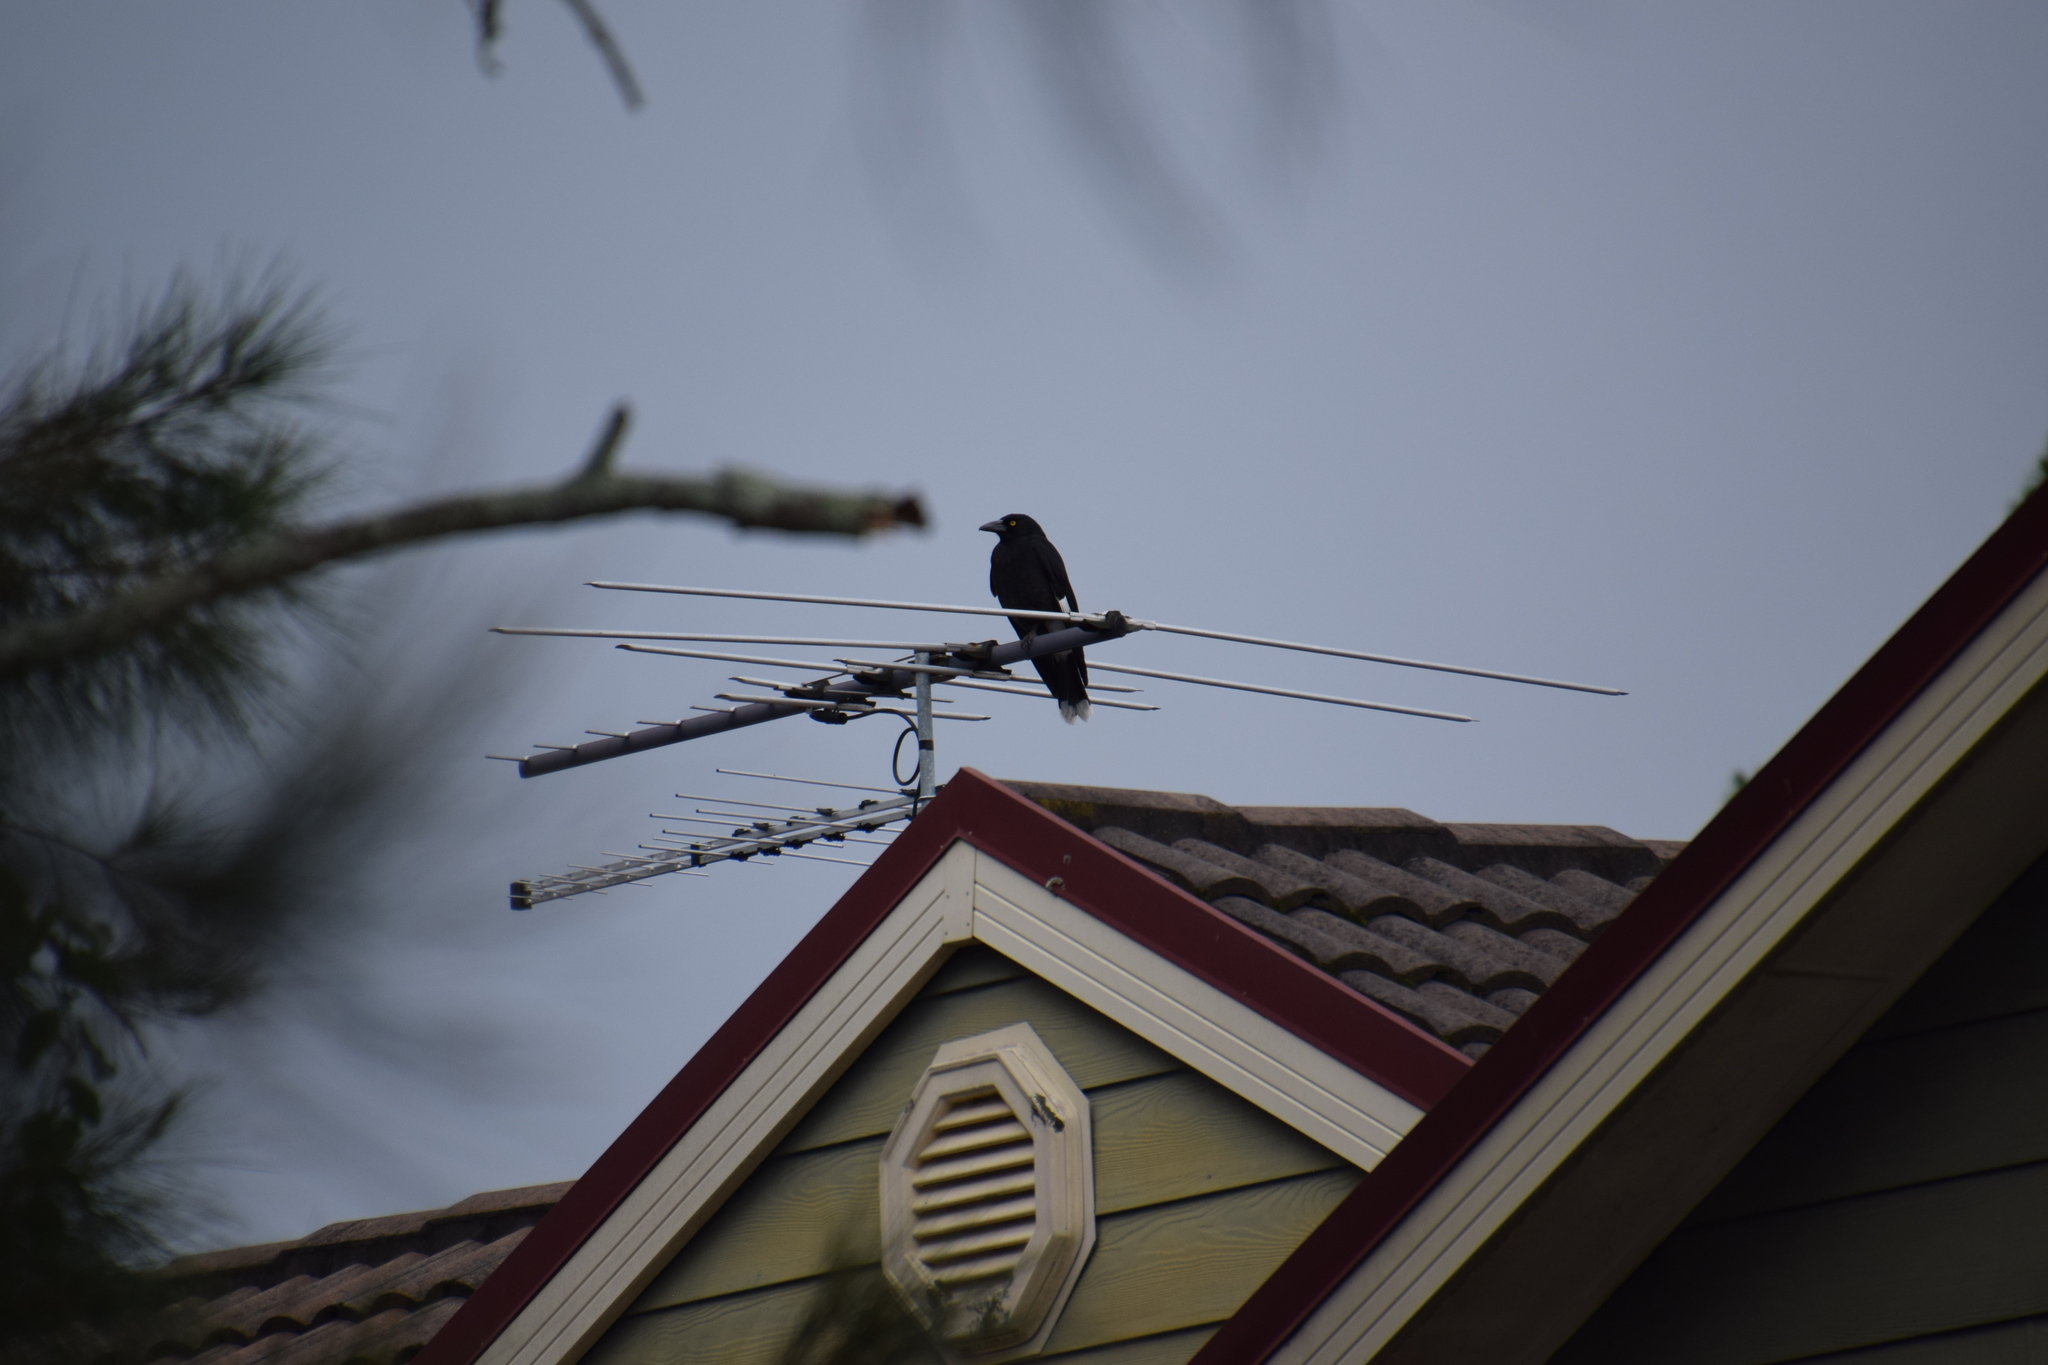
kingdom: Animalia
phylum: Chordata
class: Aves
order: Passeriformes
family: Cracticidae
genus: Strepera
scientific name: Strepera graculina
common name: Pied currawong
